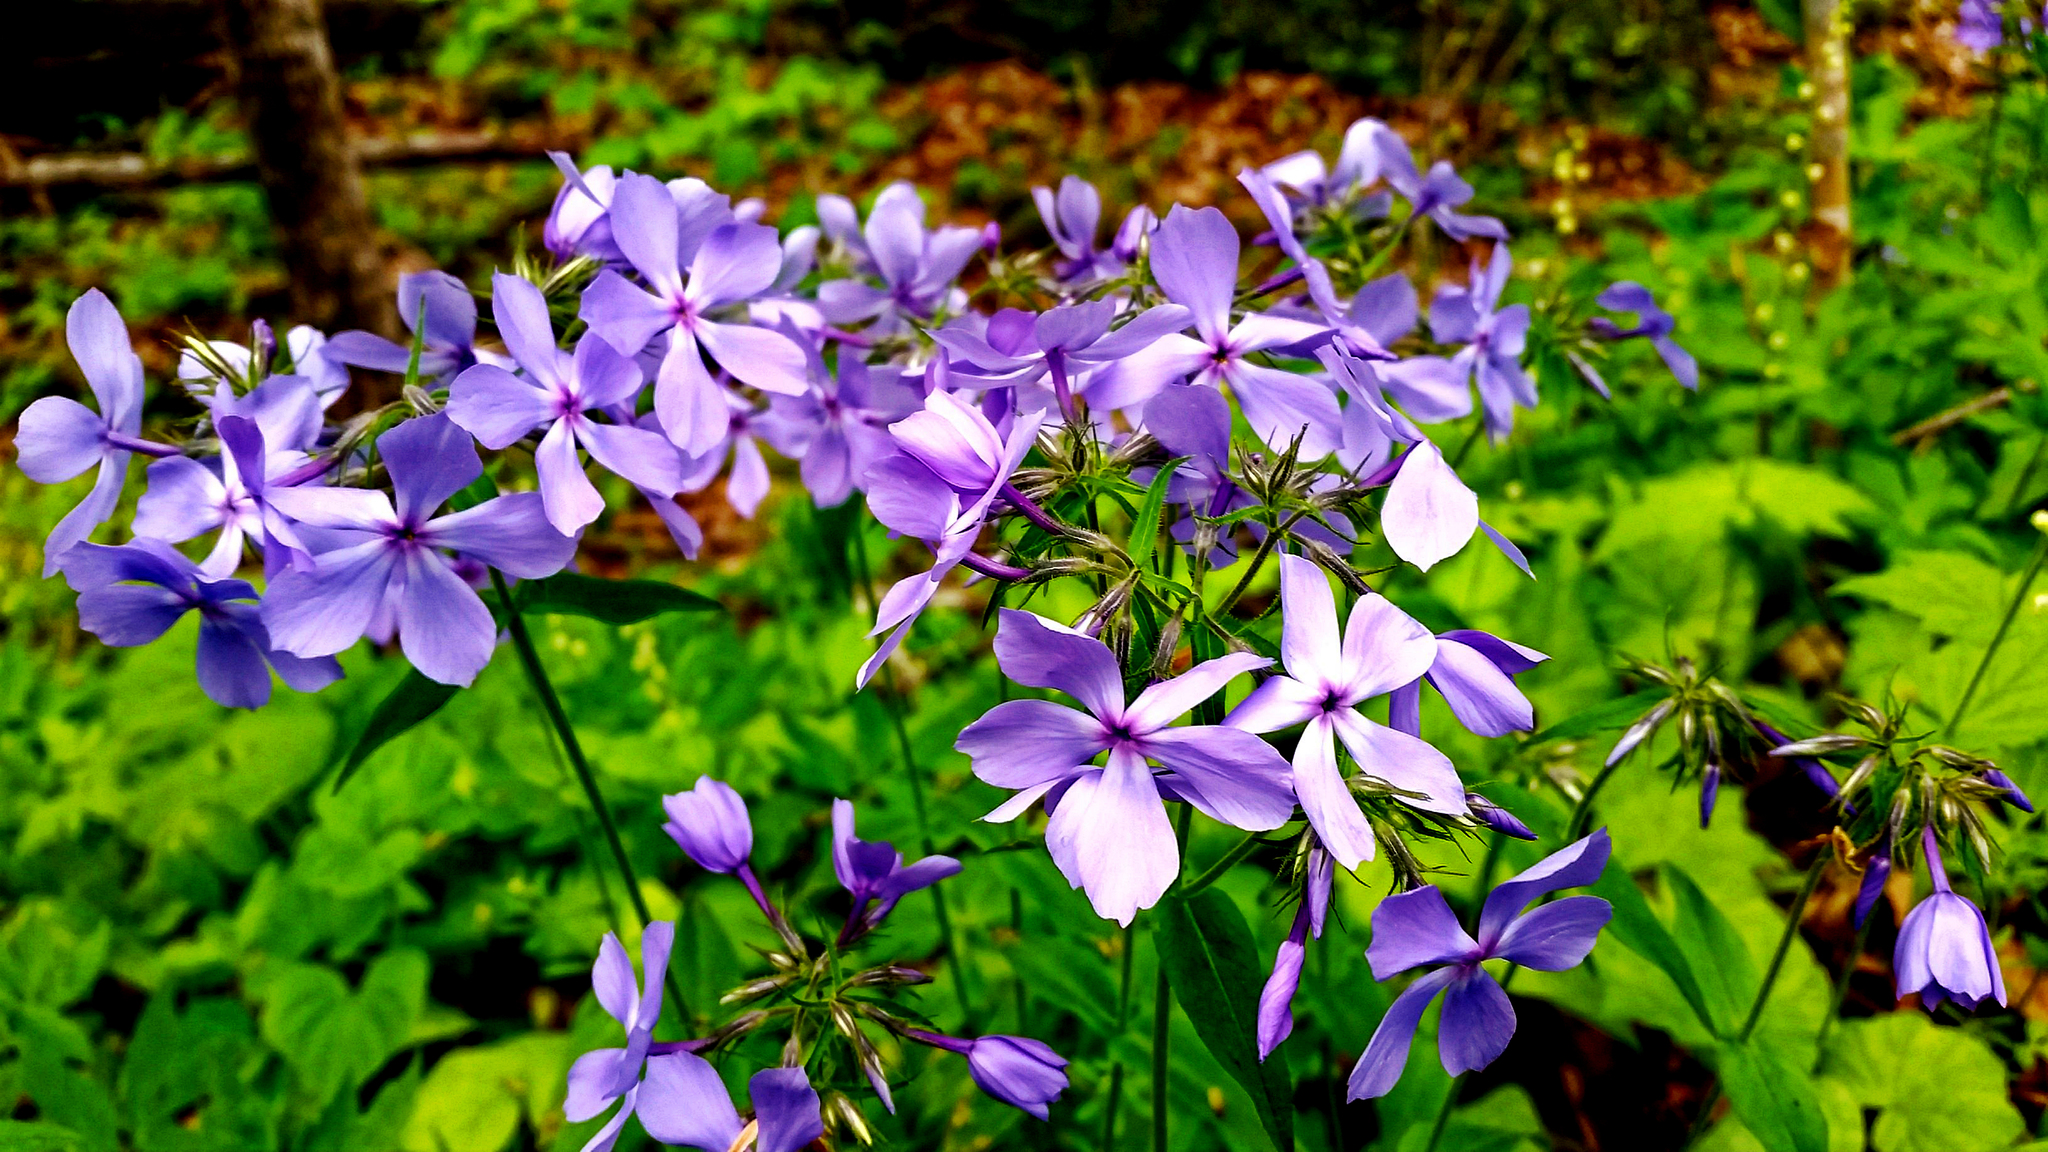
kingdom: Plantae
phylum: Tracheophyta
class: Magnoliopsida
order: Ericales
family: Polemoniaceae
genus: Phlox
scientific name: Phlox divaricata
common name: Blue phlox
